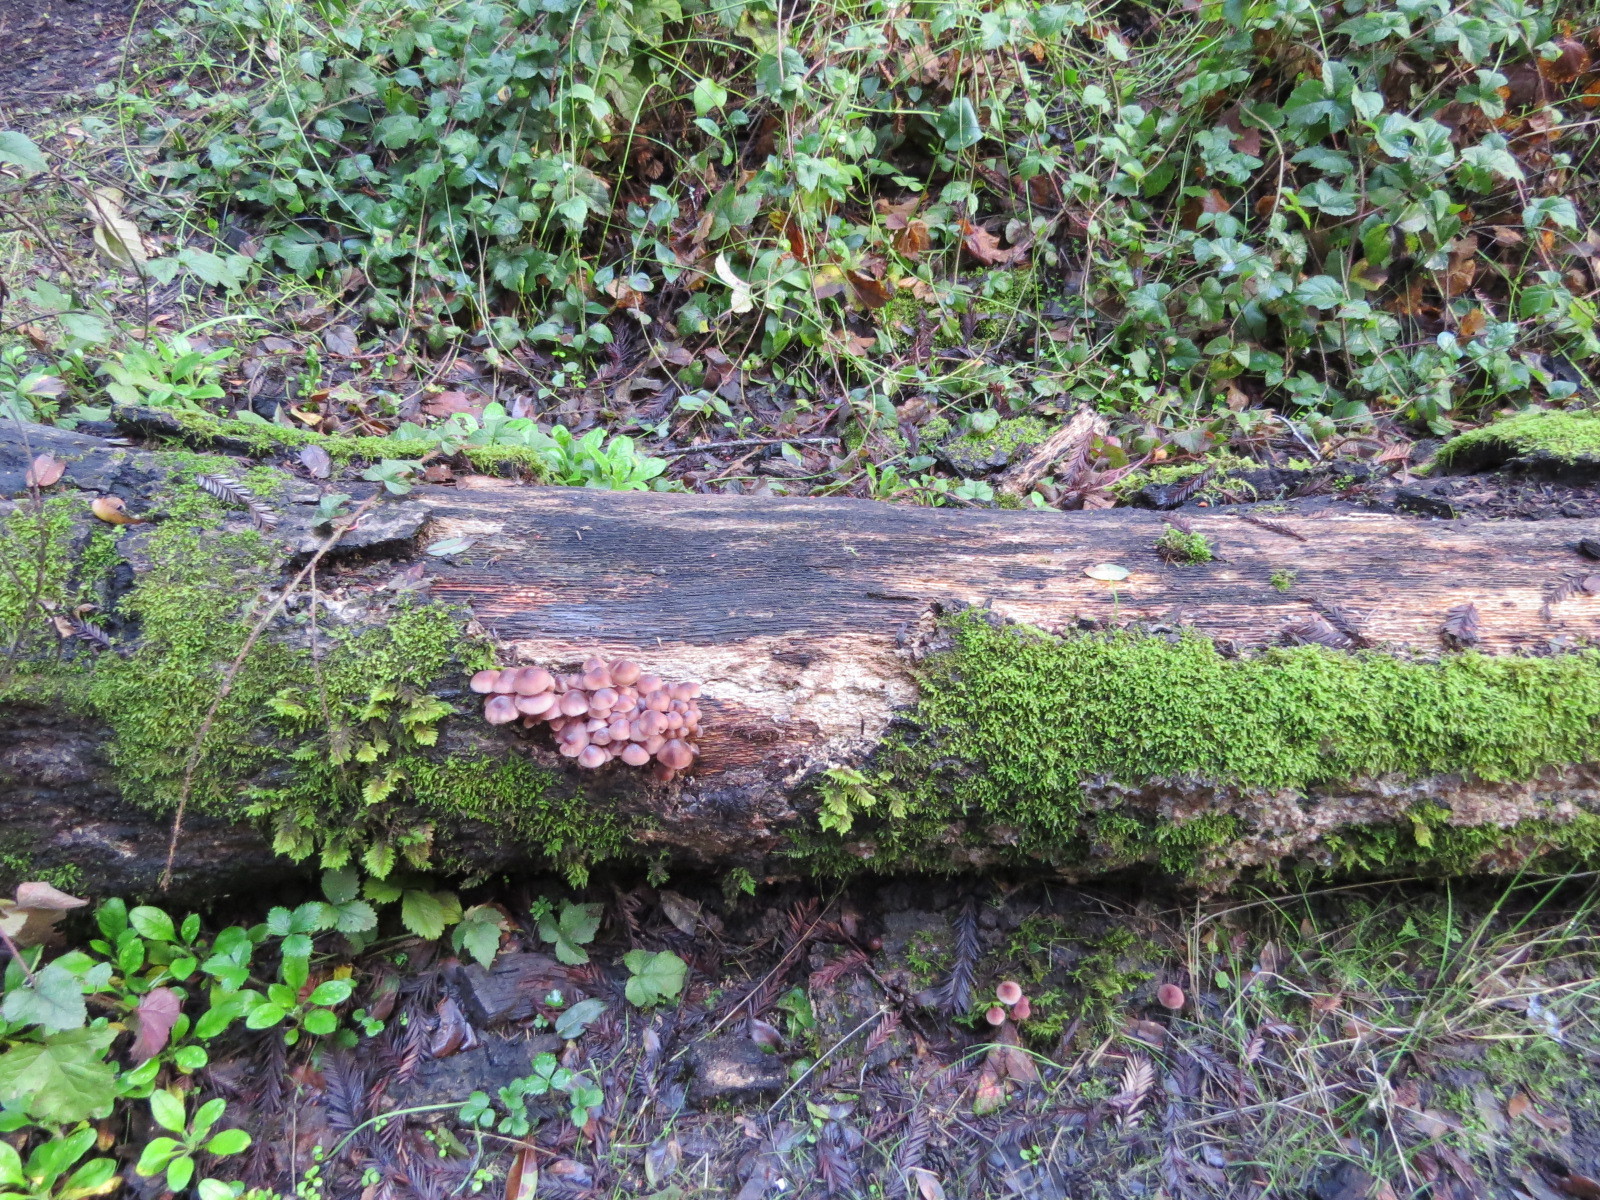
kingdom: Fungi
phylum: Basidiomycota
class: Agaricomycetes
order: Agaricales
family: Mycenaceae
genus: Mycena
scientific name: Mycena haematopus
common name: Burgundydrop bonnet
